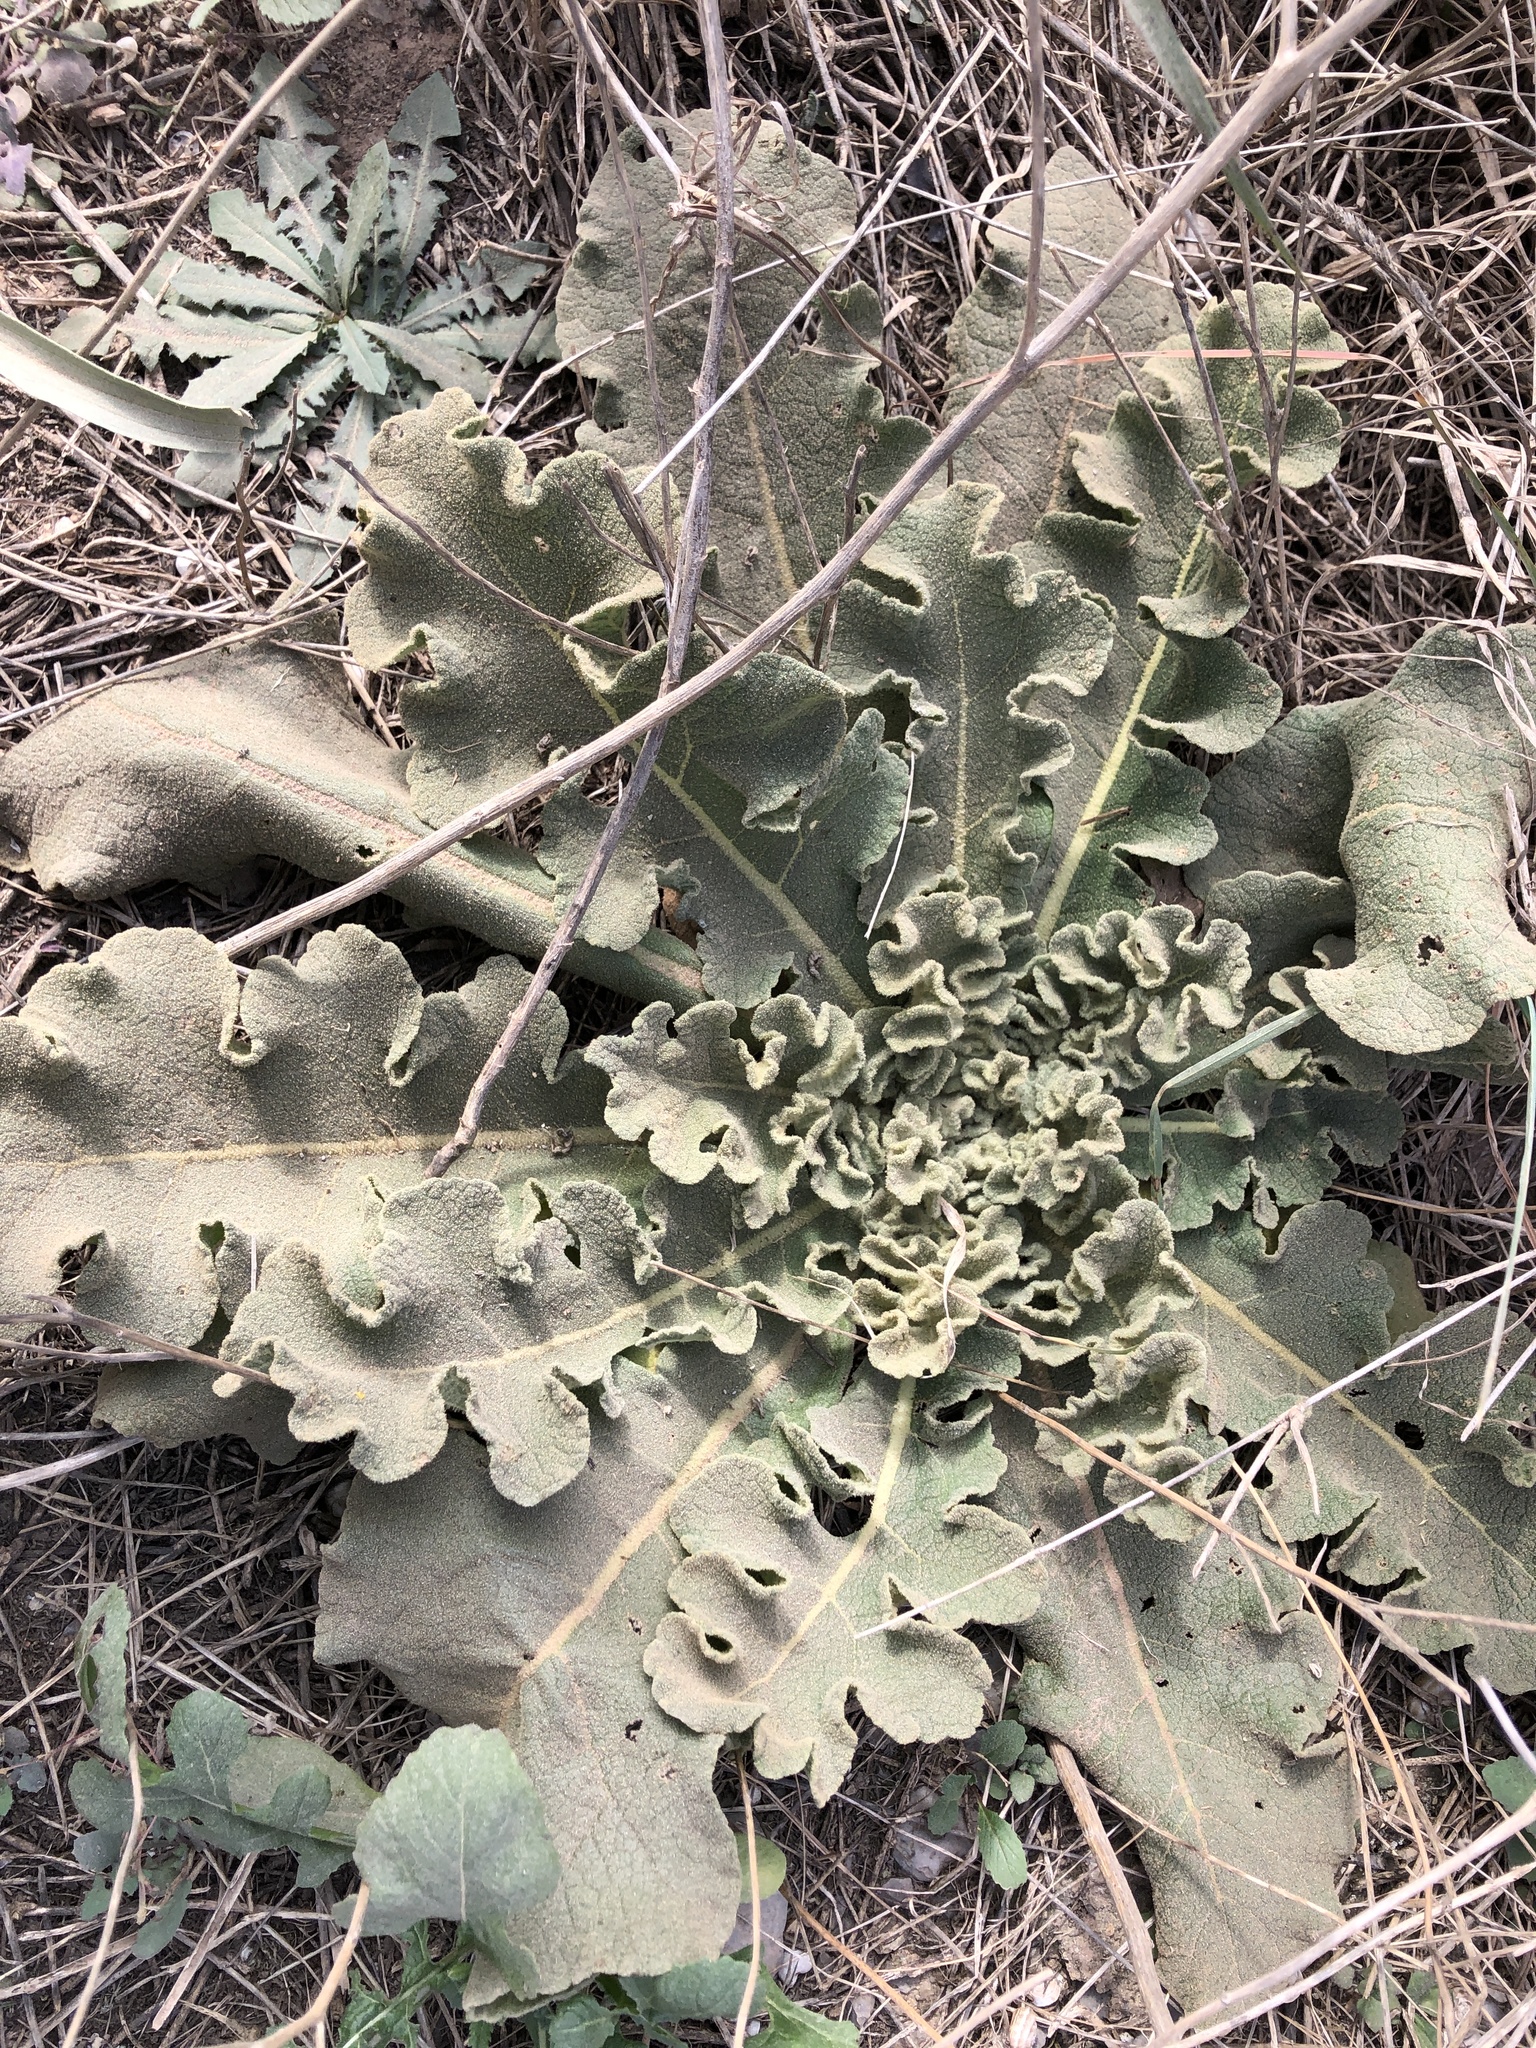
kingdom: Plantae
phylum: Tracheophyta
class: Magnoliopsida
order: Lamiales
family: Scrophulariaceae
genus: Verbascum
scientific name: Verbascum sinuatum
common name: Wavyleaf mullein
